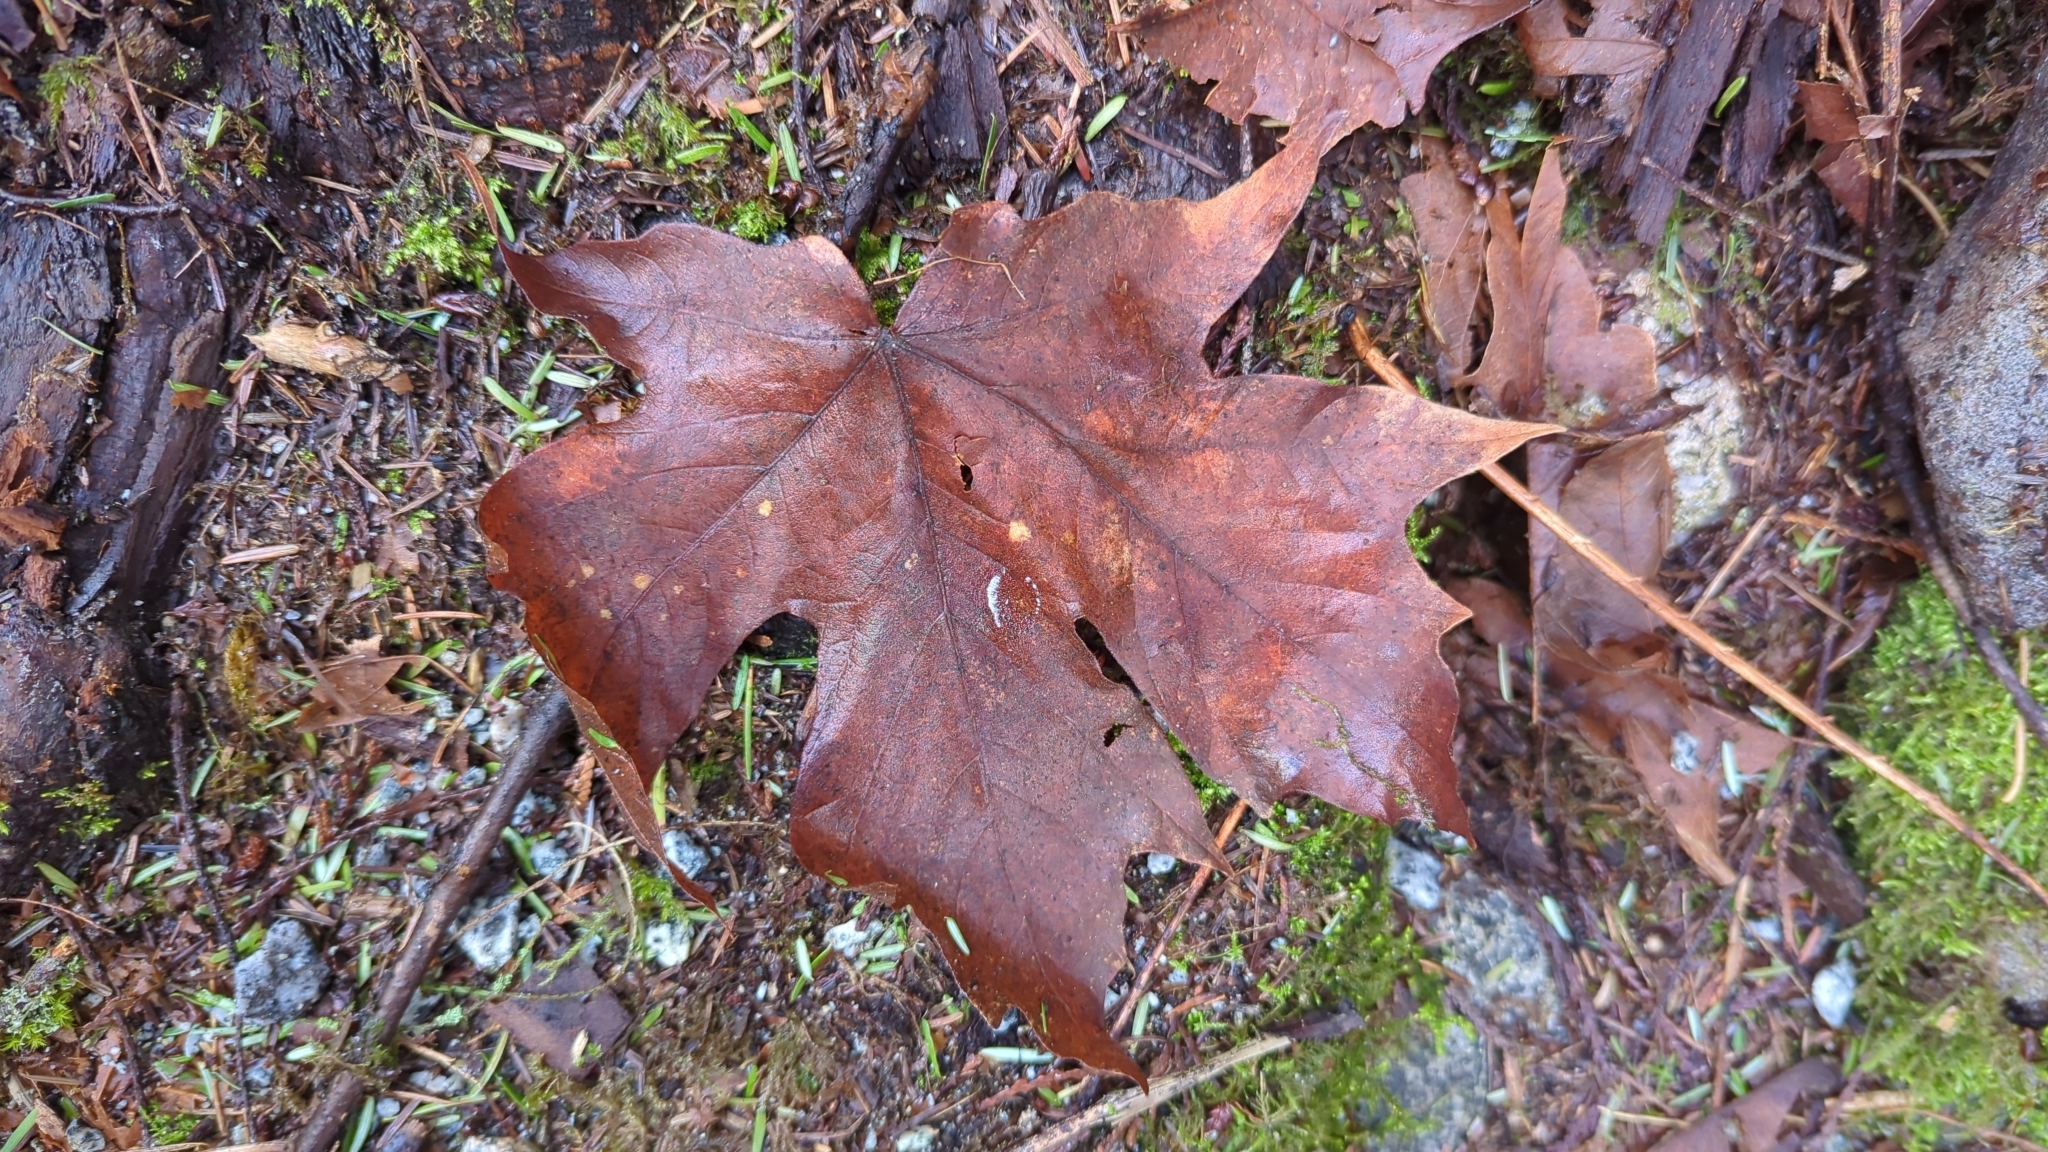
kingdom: Plantae
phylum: Tracheophyta
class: Magnoliopsida
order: Sapindales
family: Sapindaceae
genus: Acer
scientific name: Acer macrophyllum
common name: Oregon maple
